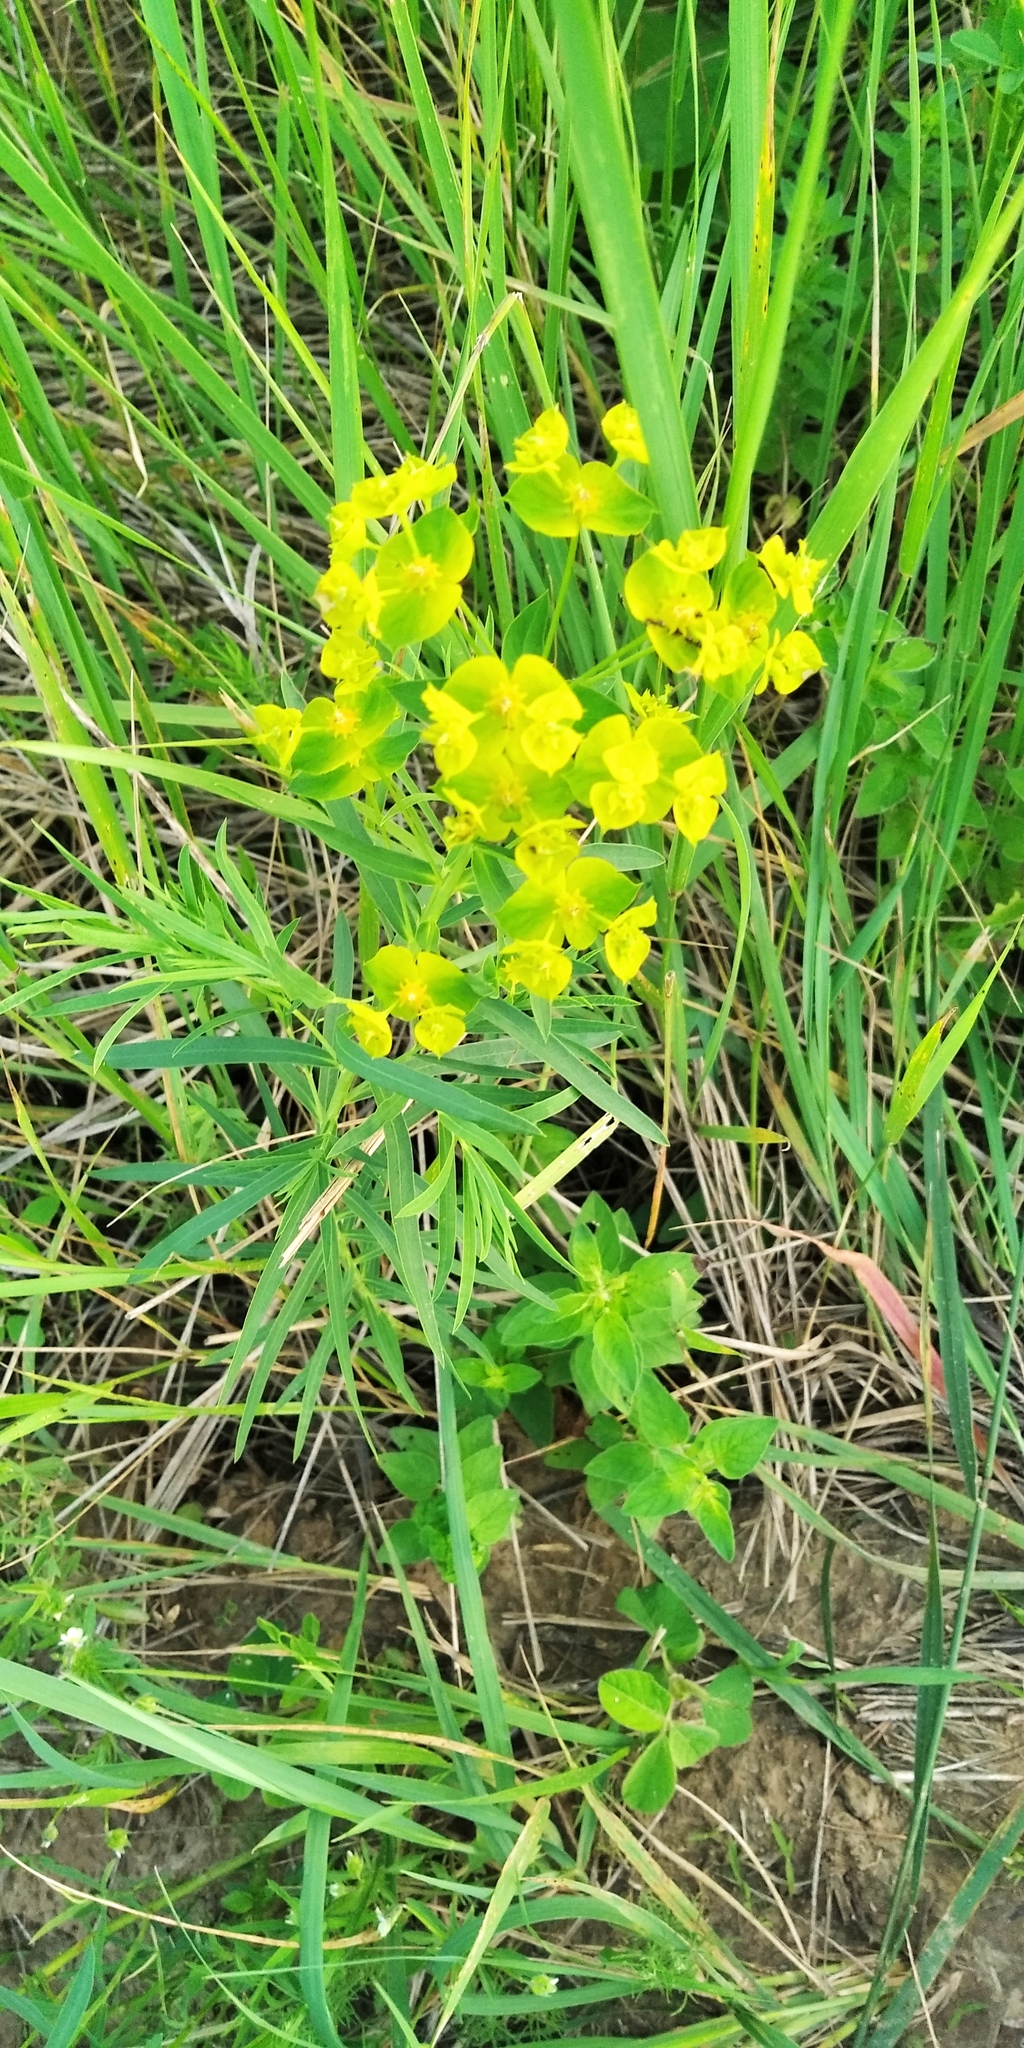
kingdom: Plantae
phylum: Tracheophyta
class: Magnoliopsida
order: Malpighiales
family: Euphorbiaceae
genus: Euphorbia
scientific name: Euphorbia virgata
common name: Leafy spurge
